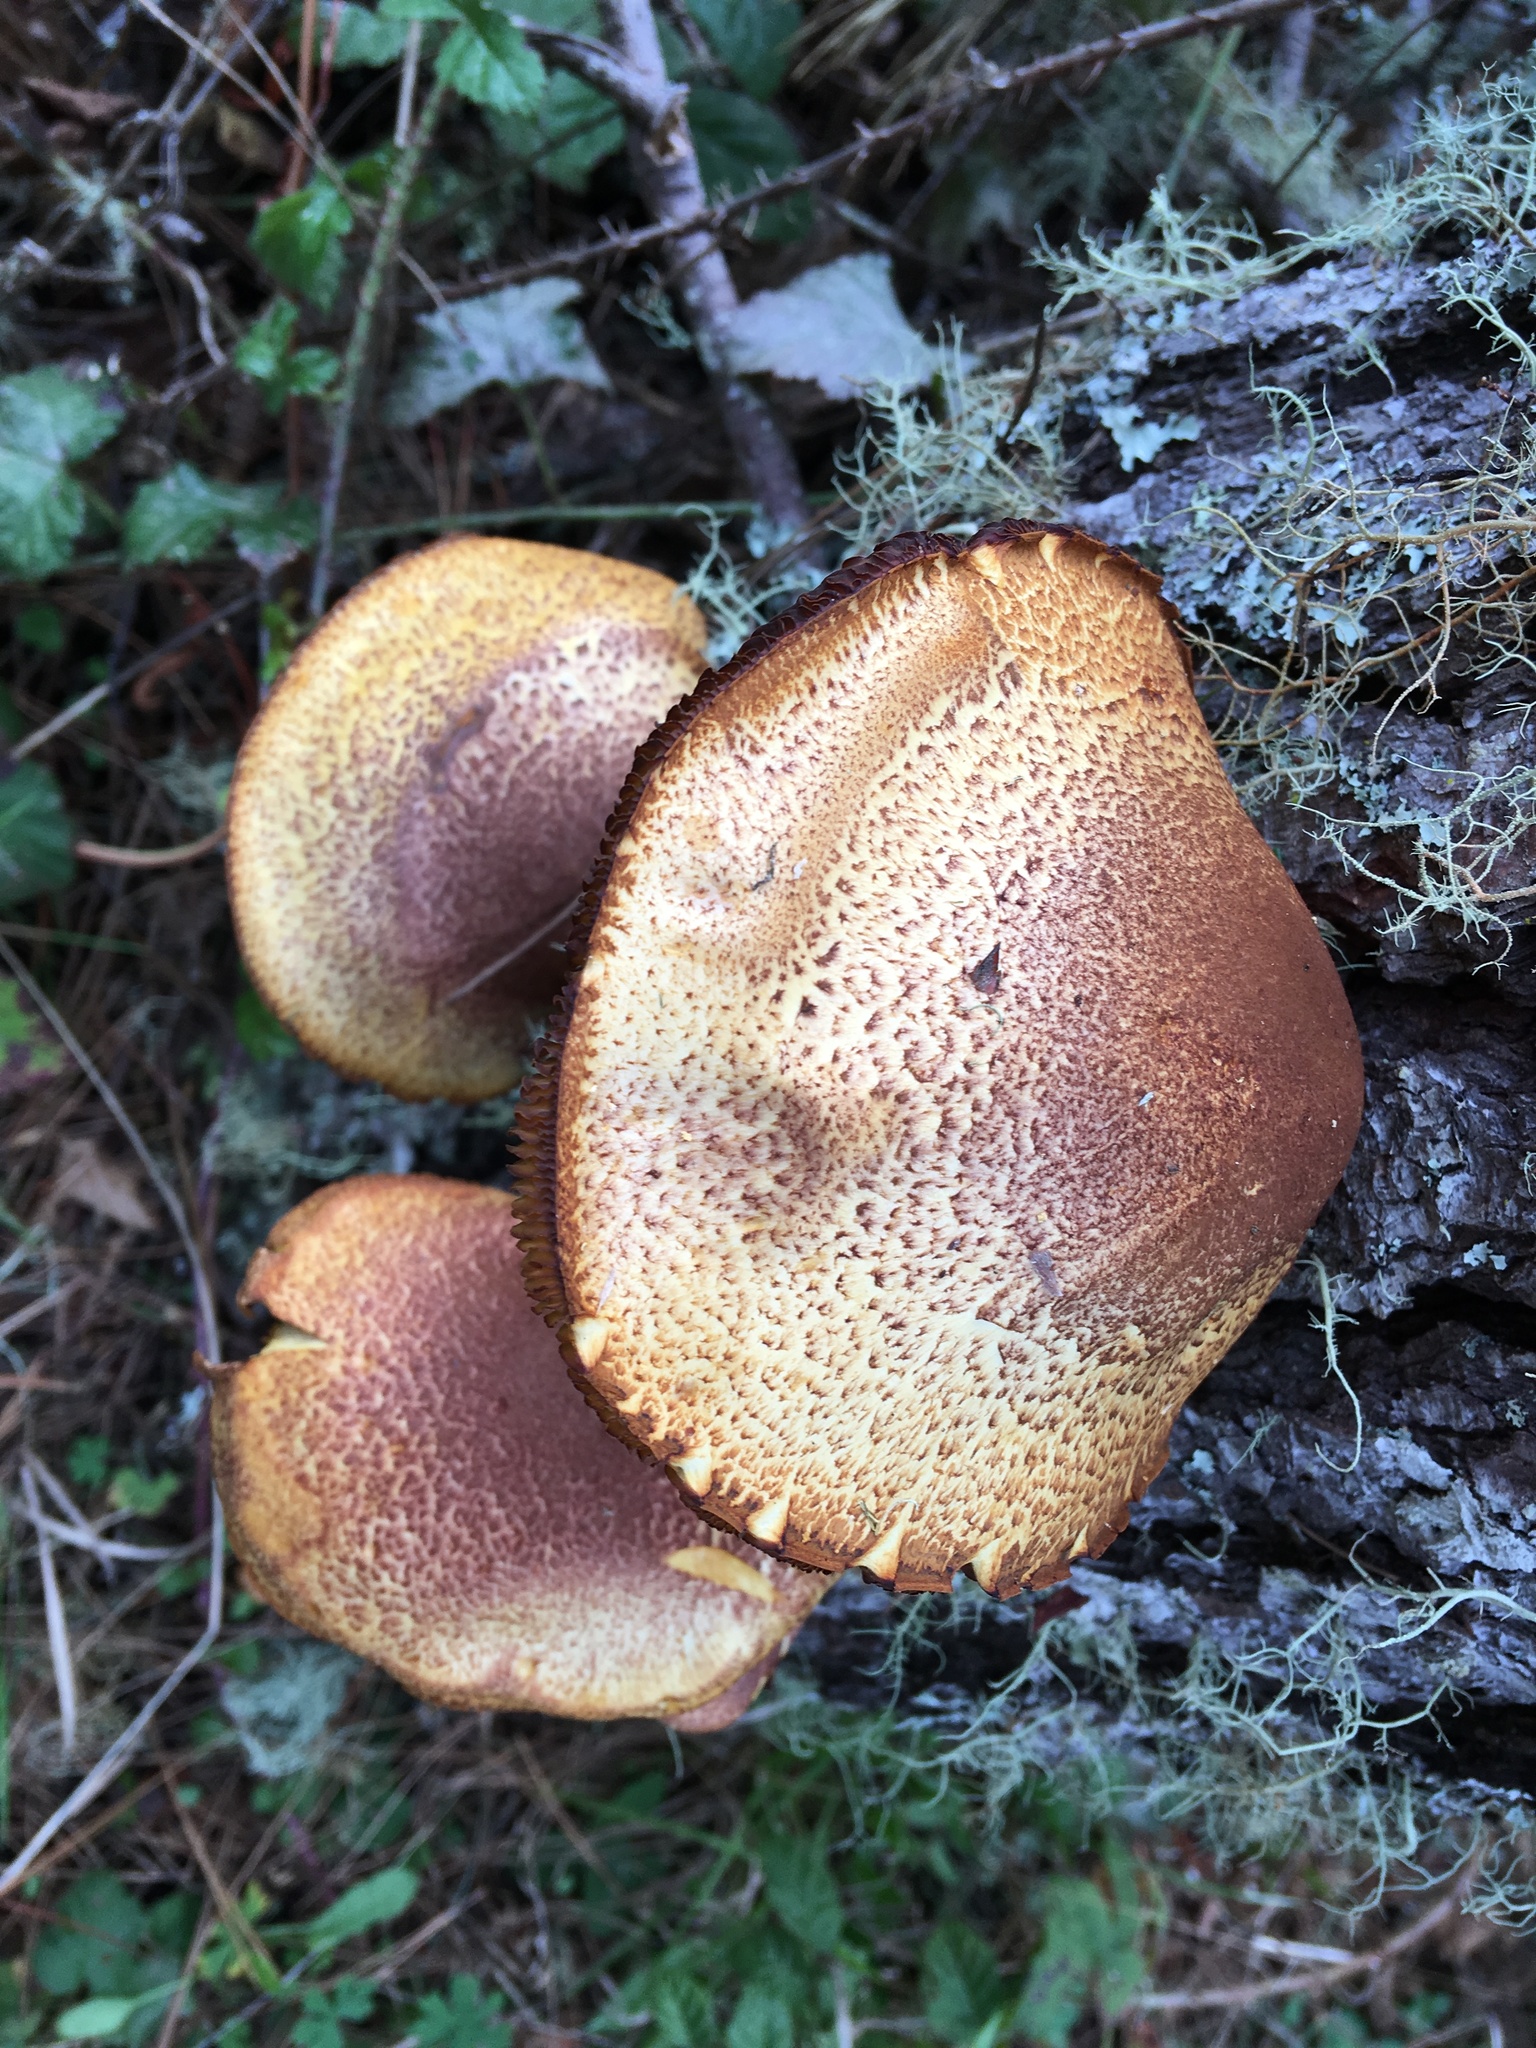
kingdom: Fungi
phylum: Basidiomycota
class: Agaricomycetes
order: Agaricales
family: Tricholomataceae
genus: Tricholomopsis
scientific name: Tricholomopsis rutilans
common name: Plums and custard
